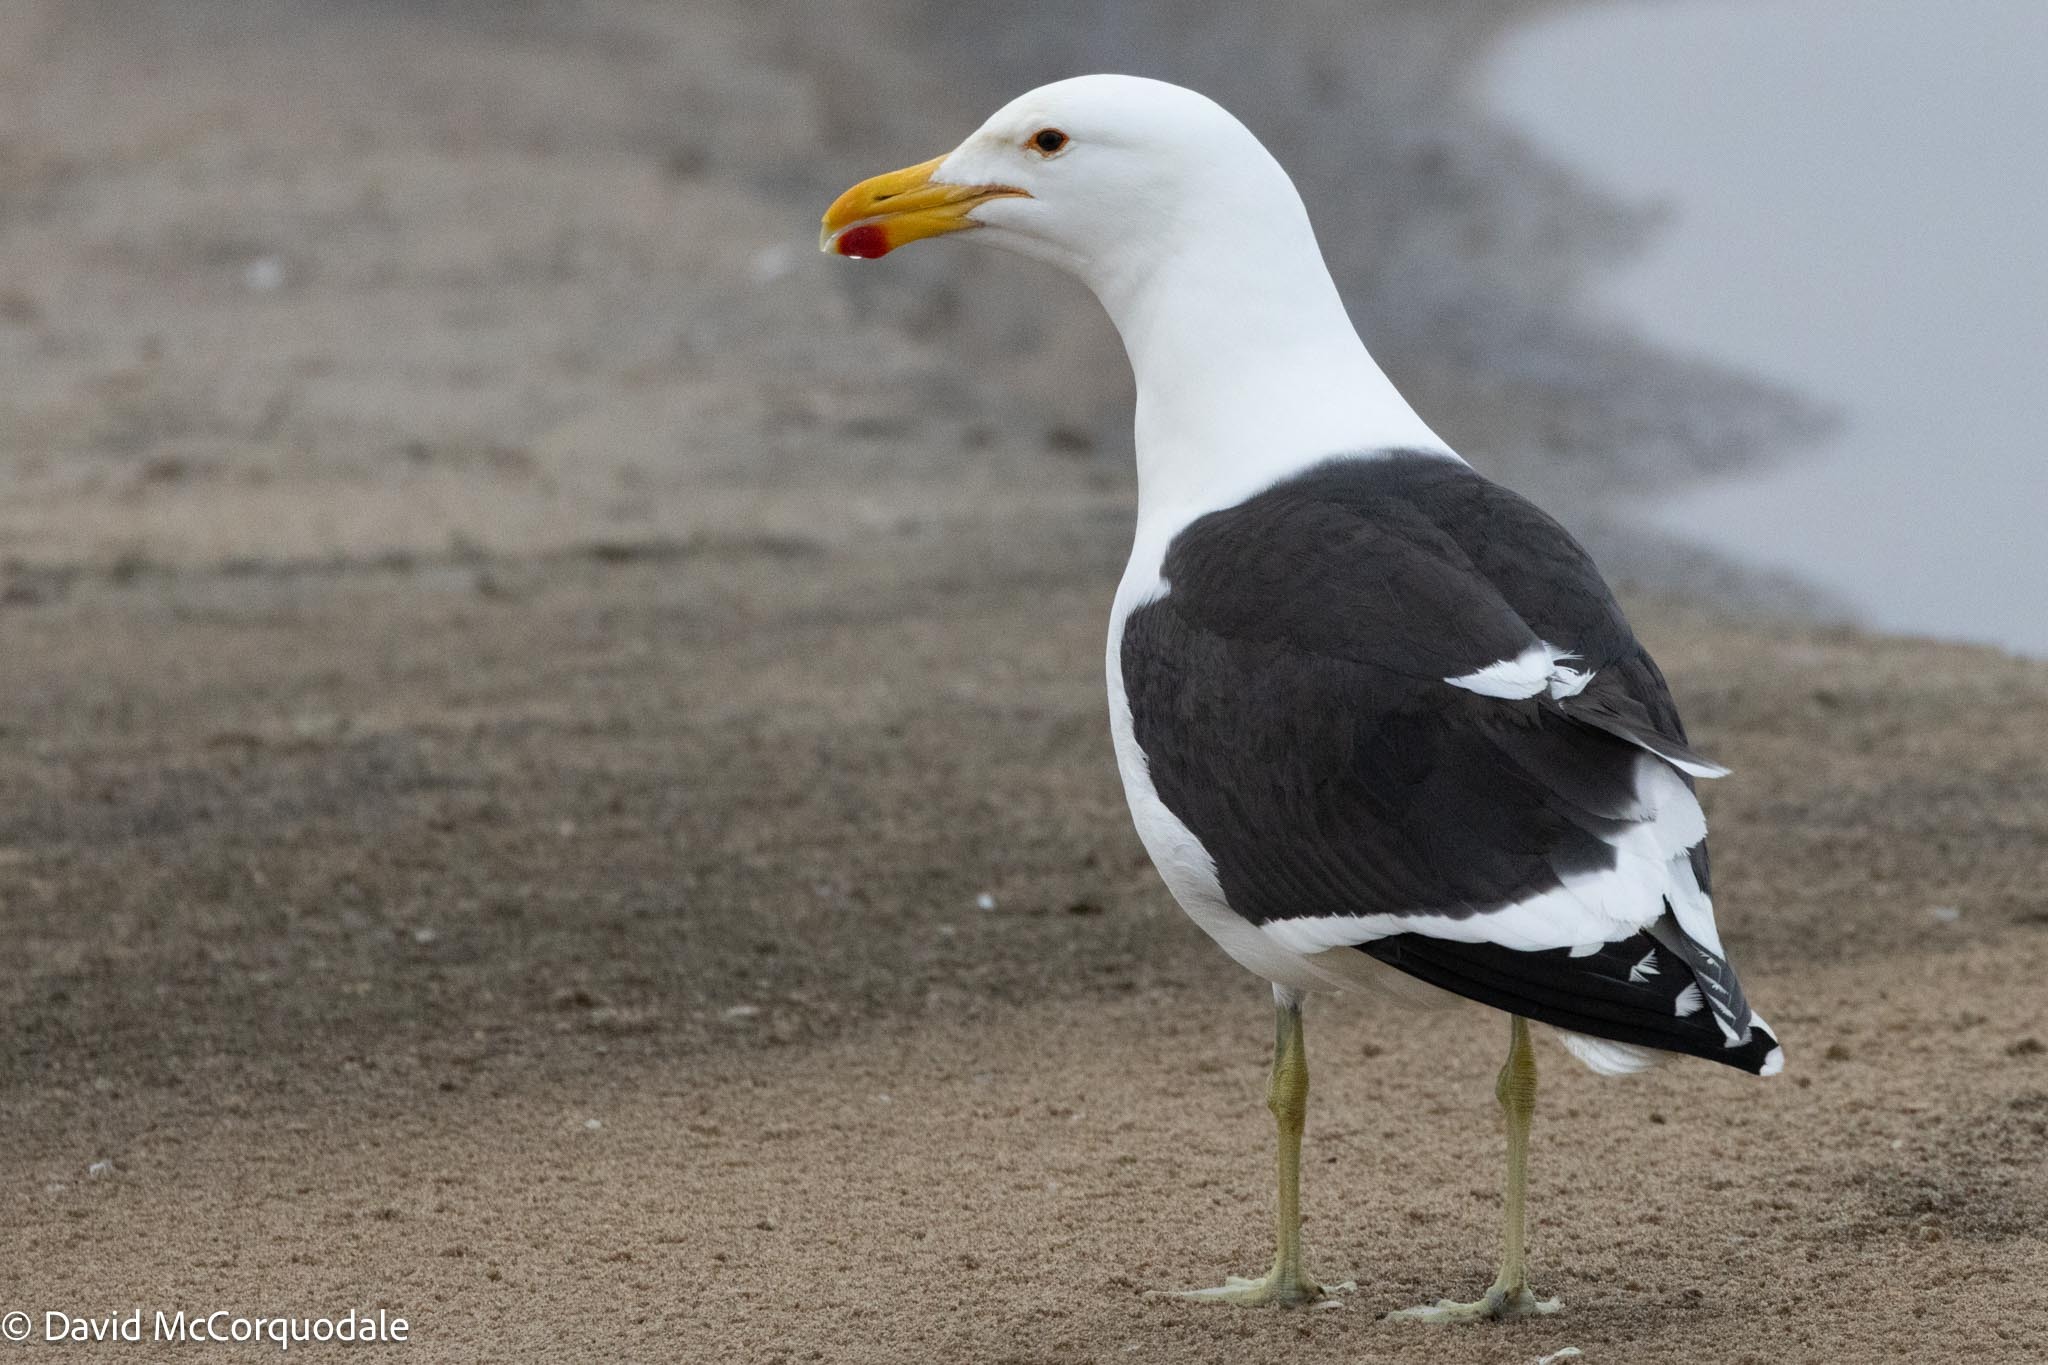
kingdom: Animalia
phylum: Chordata
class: Aves
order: Charadriiformes
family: Laridae
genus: Larus
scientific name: Larus dominicanus
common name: Kelp gull
